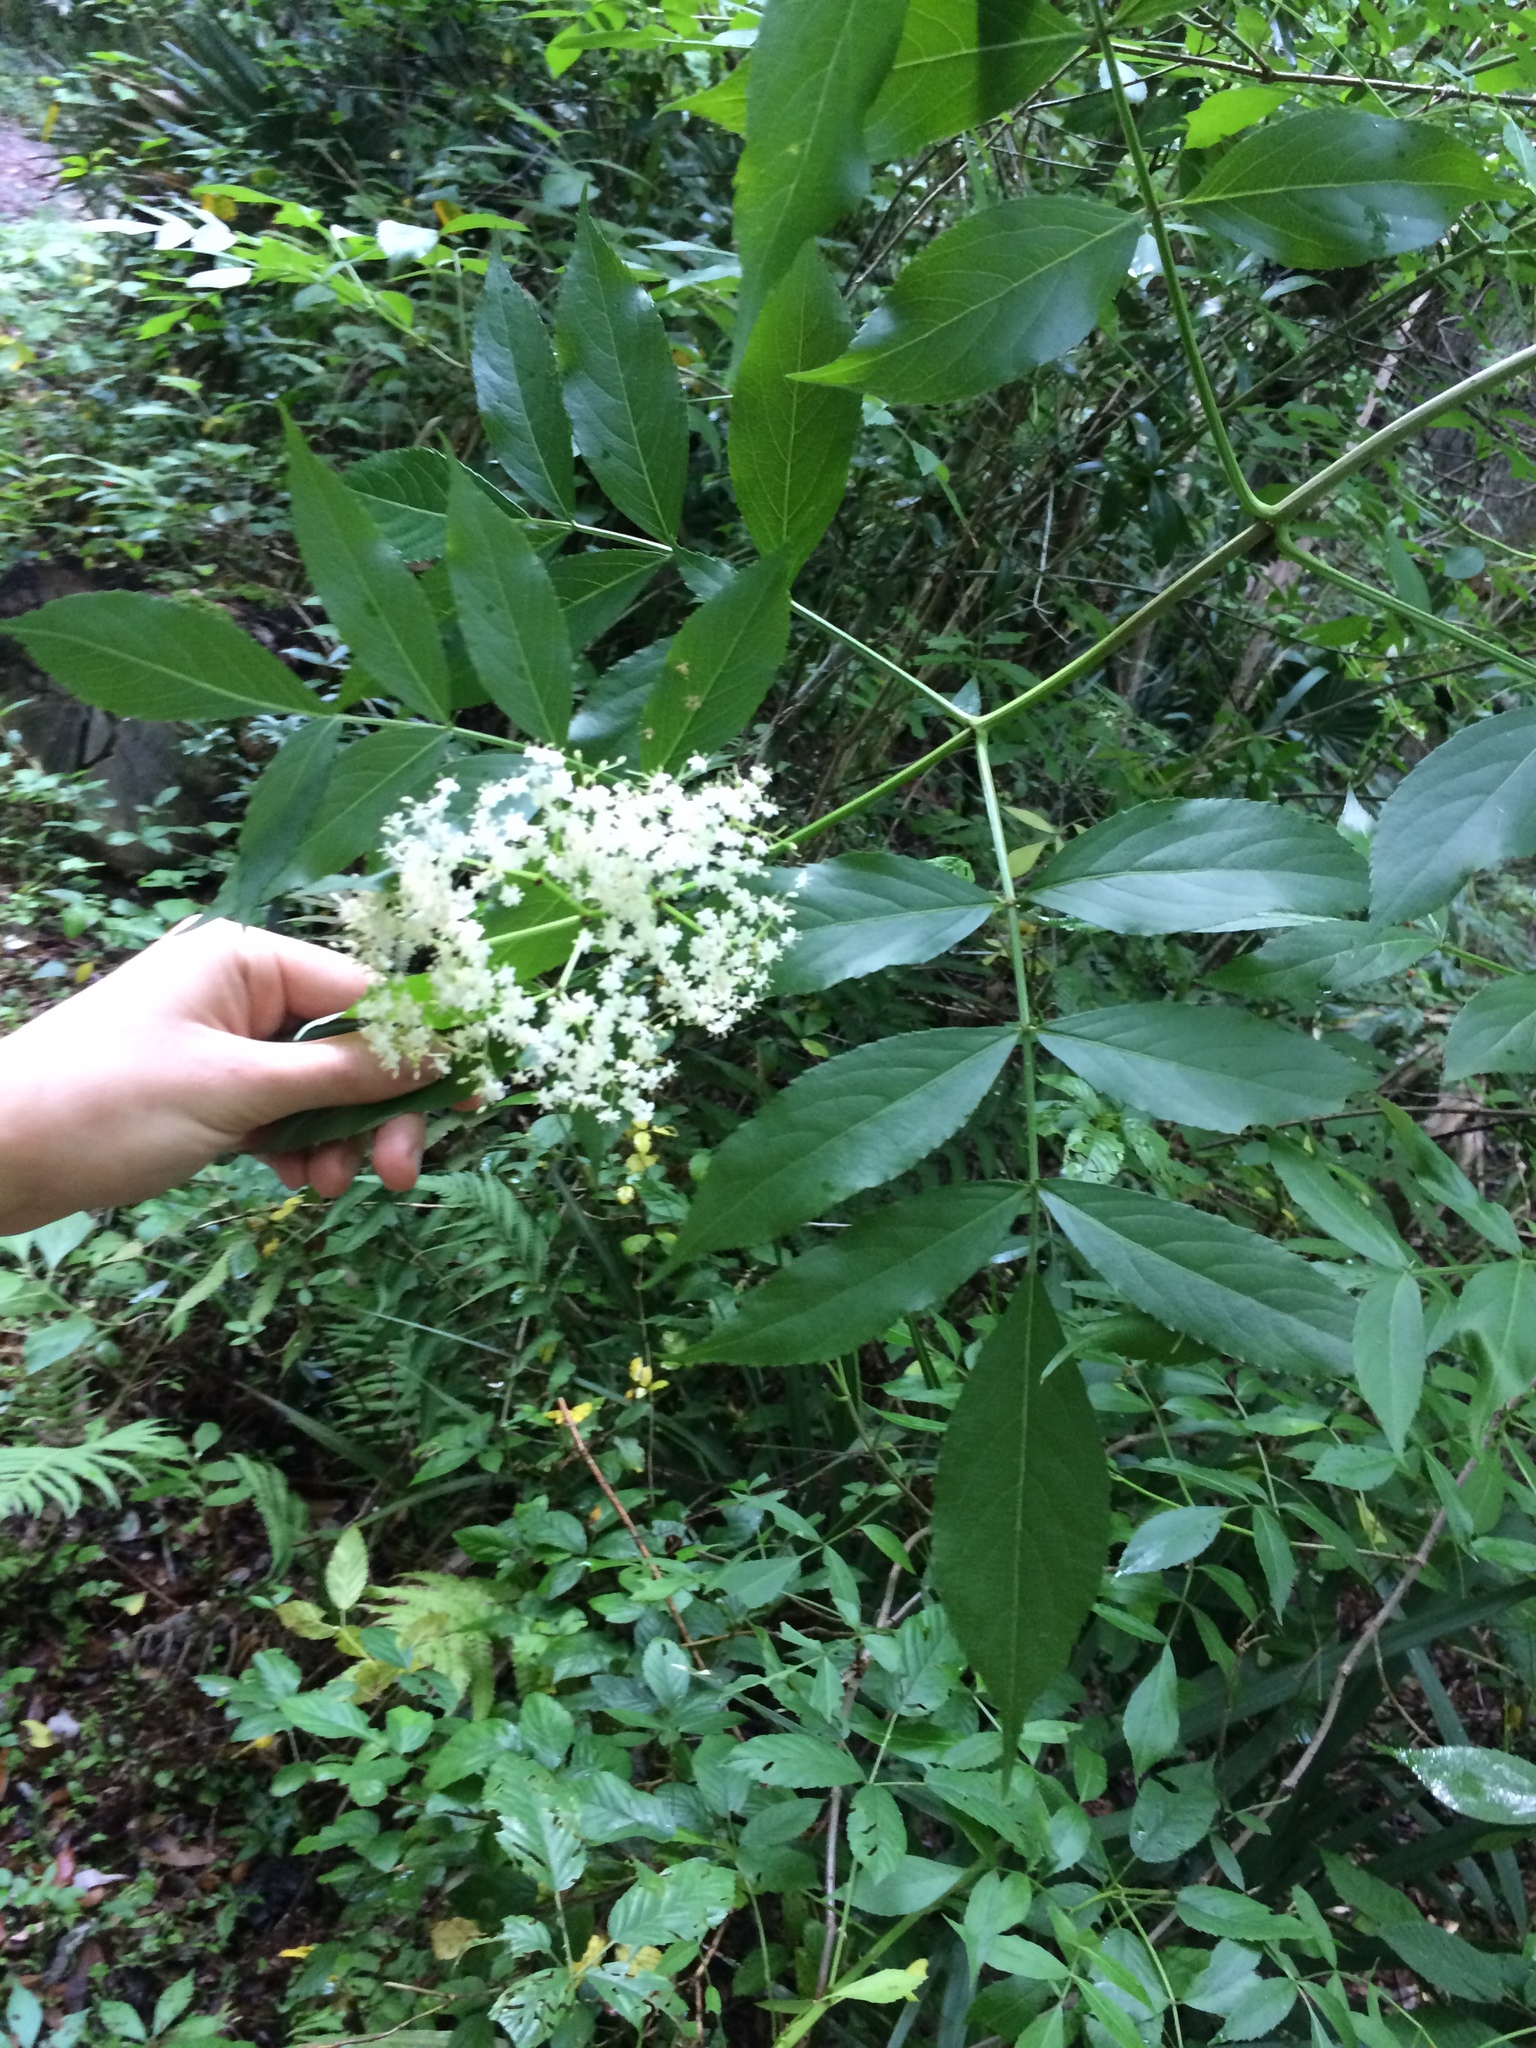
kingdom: Plantae
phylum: Tracheophyta
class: Magnoliopsida
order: Dipsacales
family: Viburnaceae
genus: Sambucus
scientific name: Sambucus canadensis
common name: American elder
